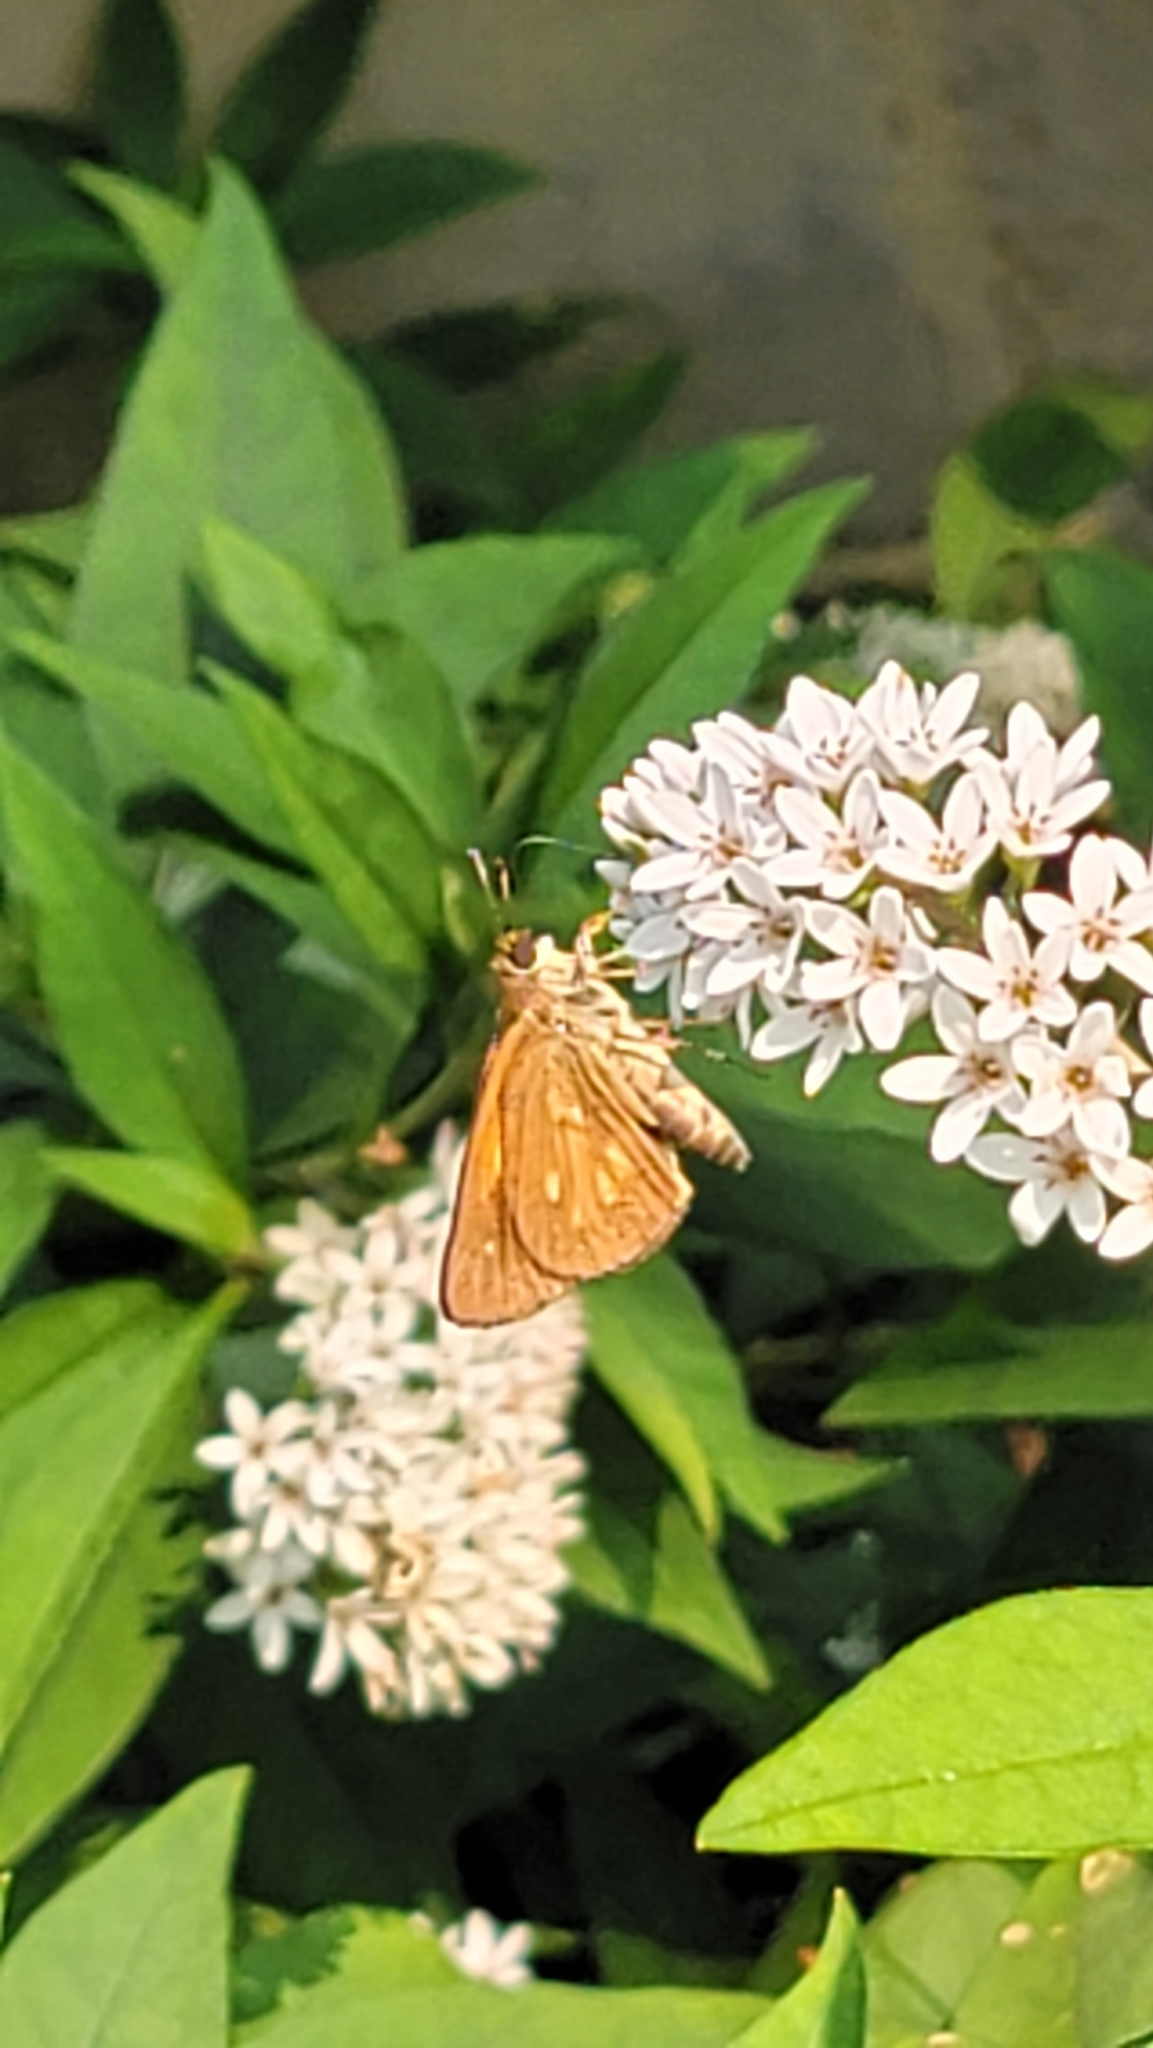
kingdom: Animalia
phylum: Arthropoda
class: Insecta
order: Lepidoptera
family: Hesperiidae
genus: Poanes
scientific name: Poanes viator
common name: Broad-winged skipper
